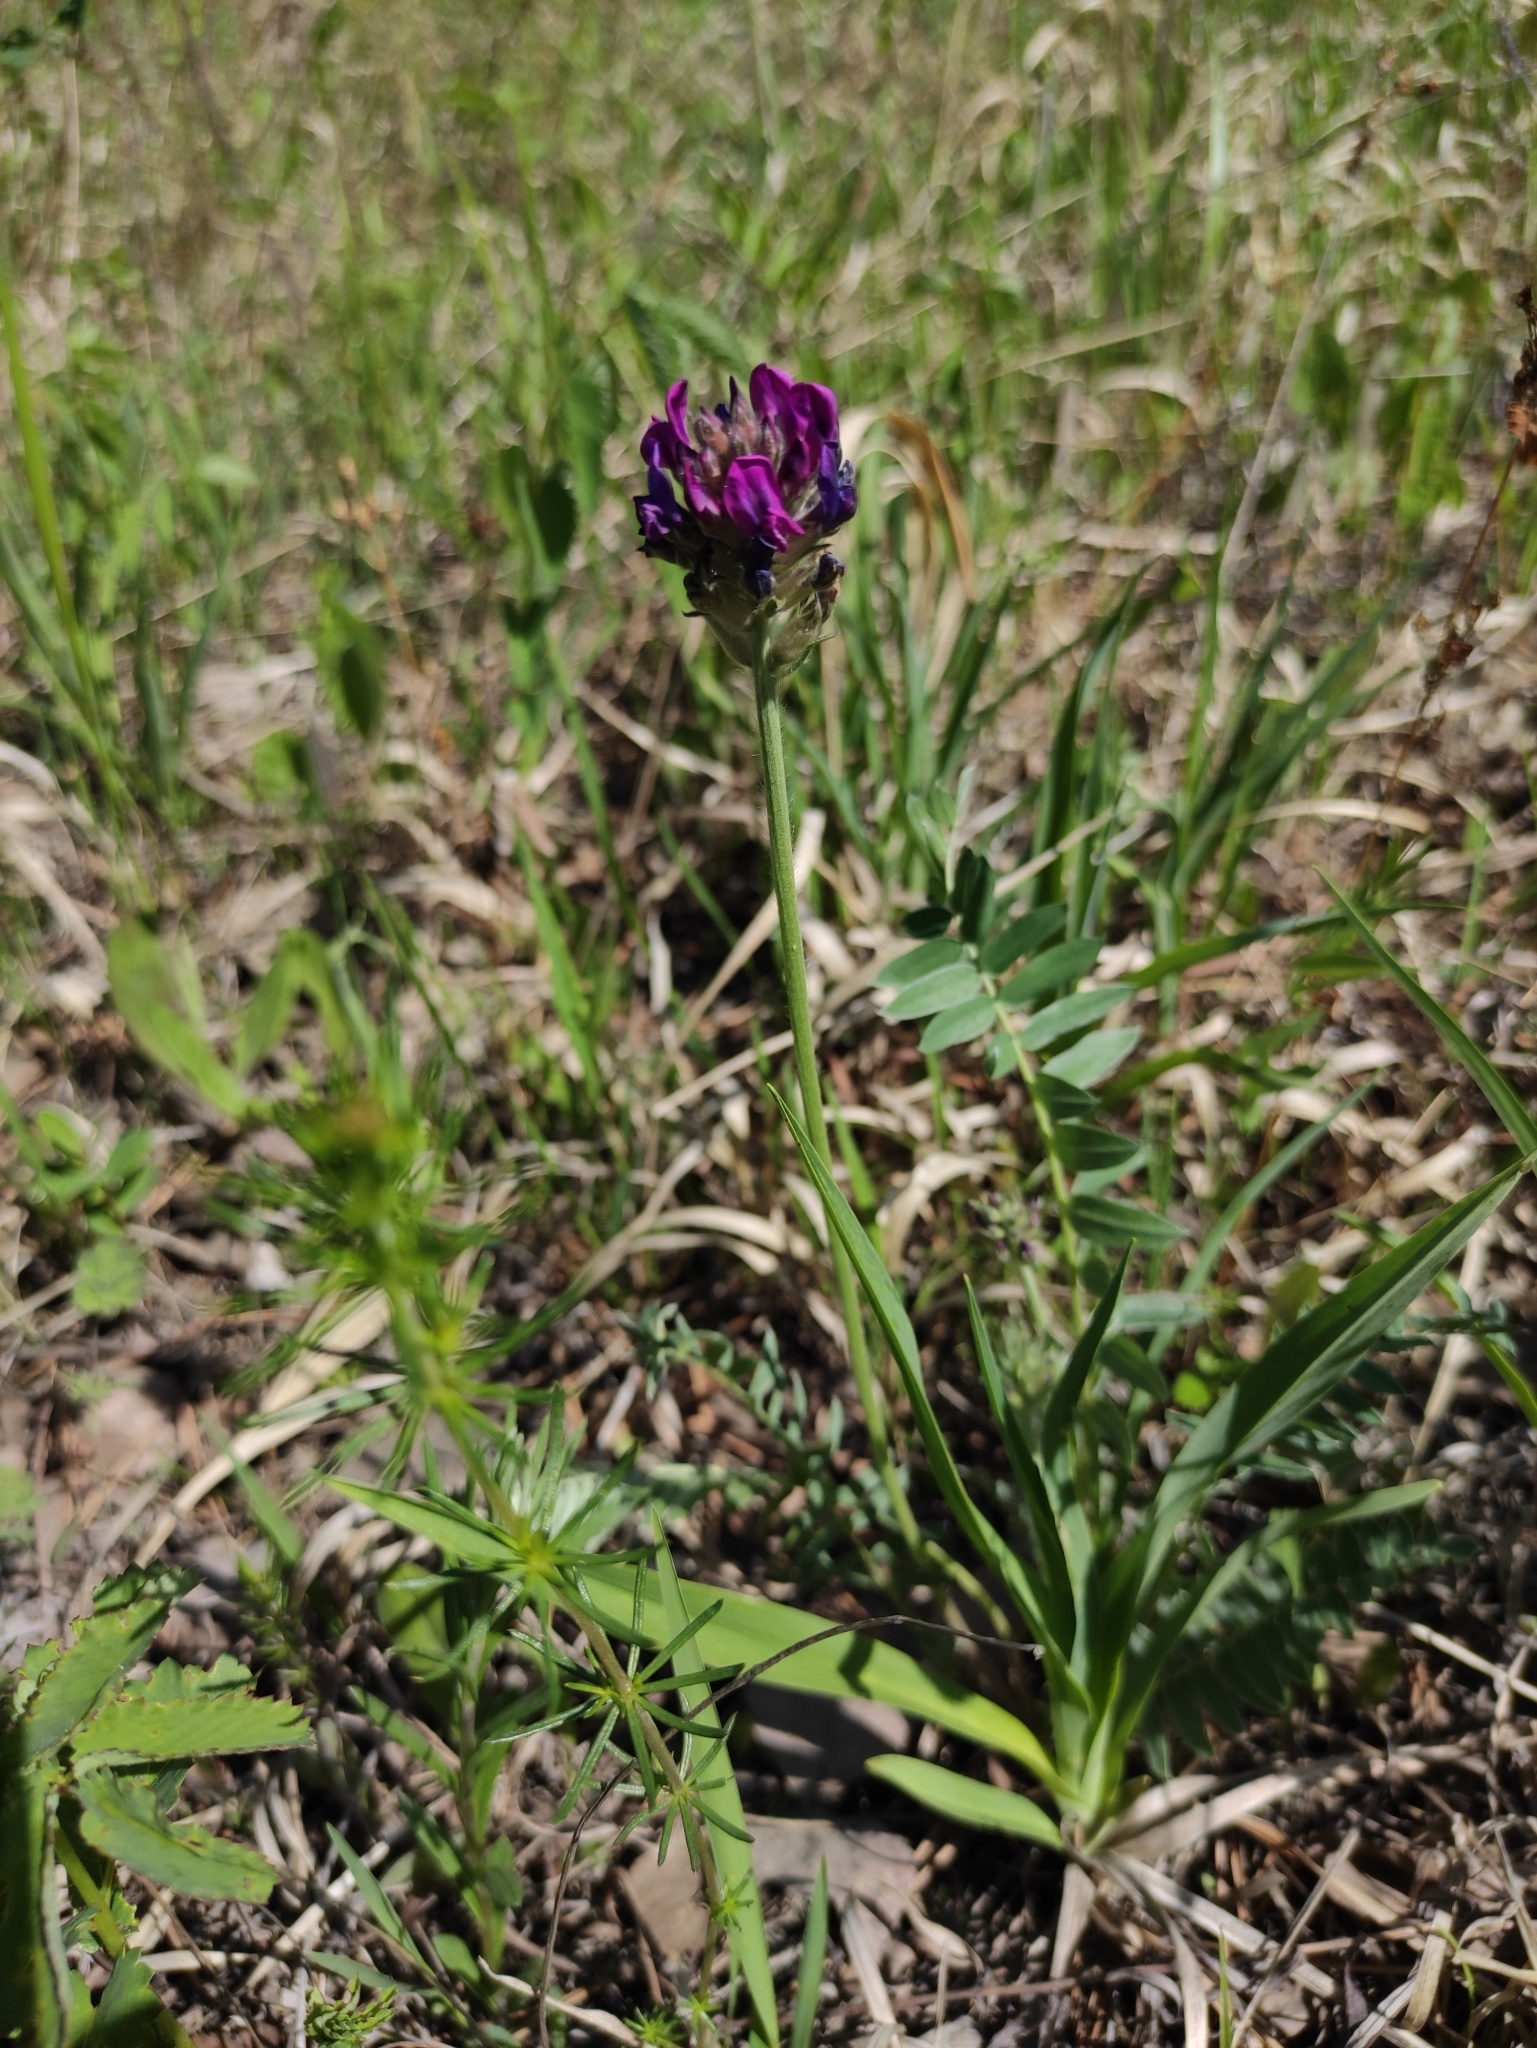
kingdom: Plantae
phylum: Tracheophyta
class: Magnoliopsida
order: Fabales
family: Fabaceae
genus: Oxytropis
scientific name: Oxytropis strobilacea
